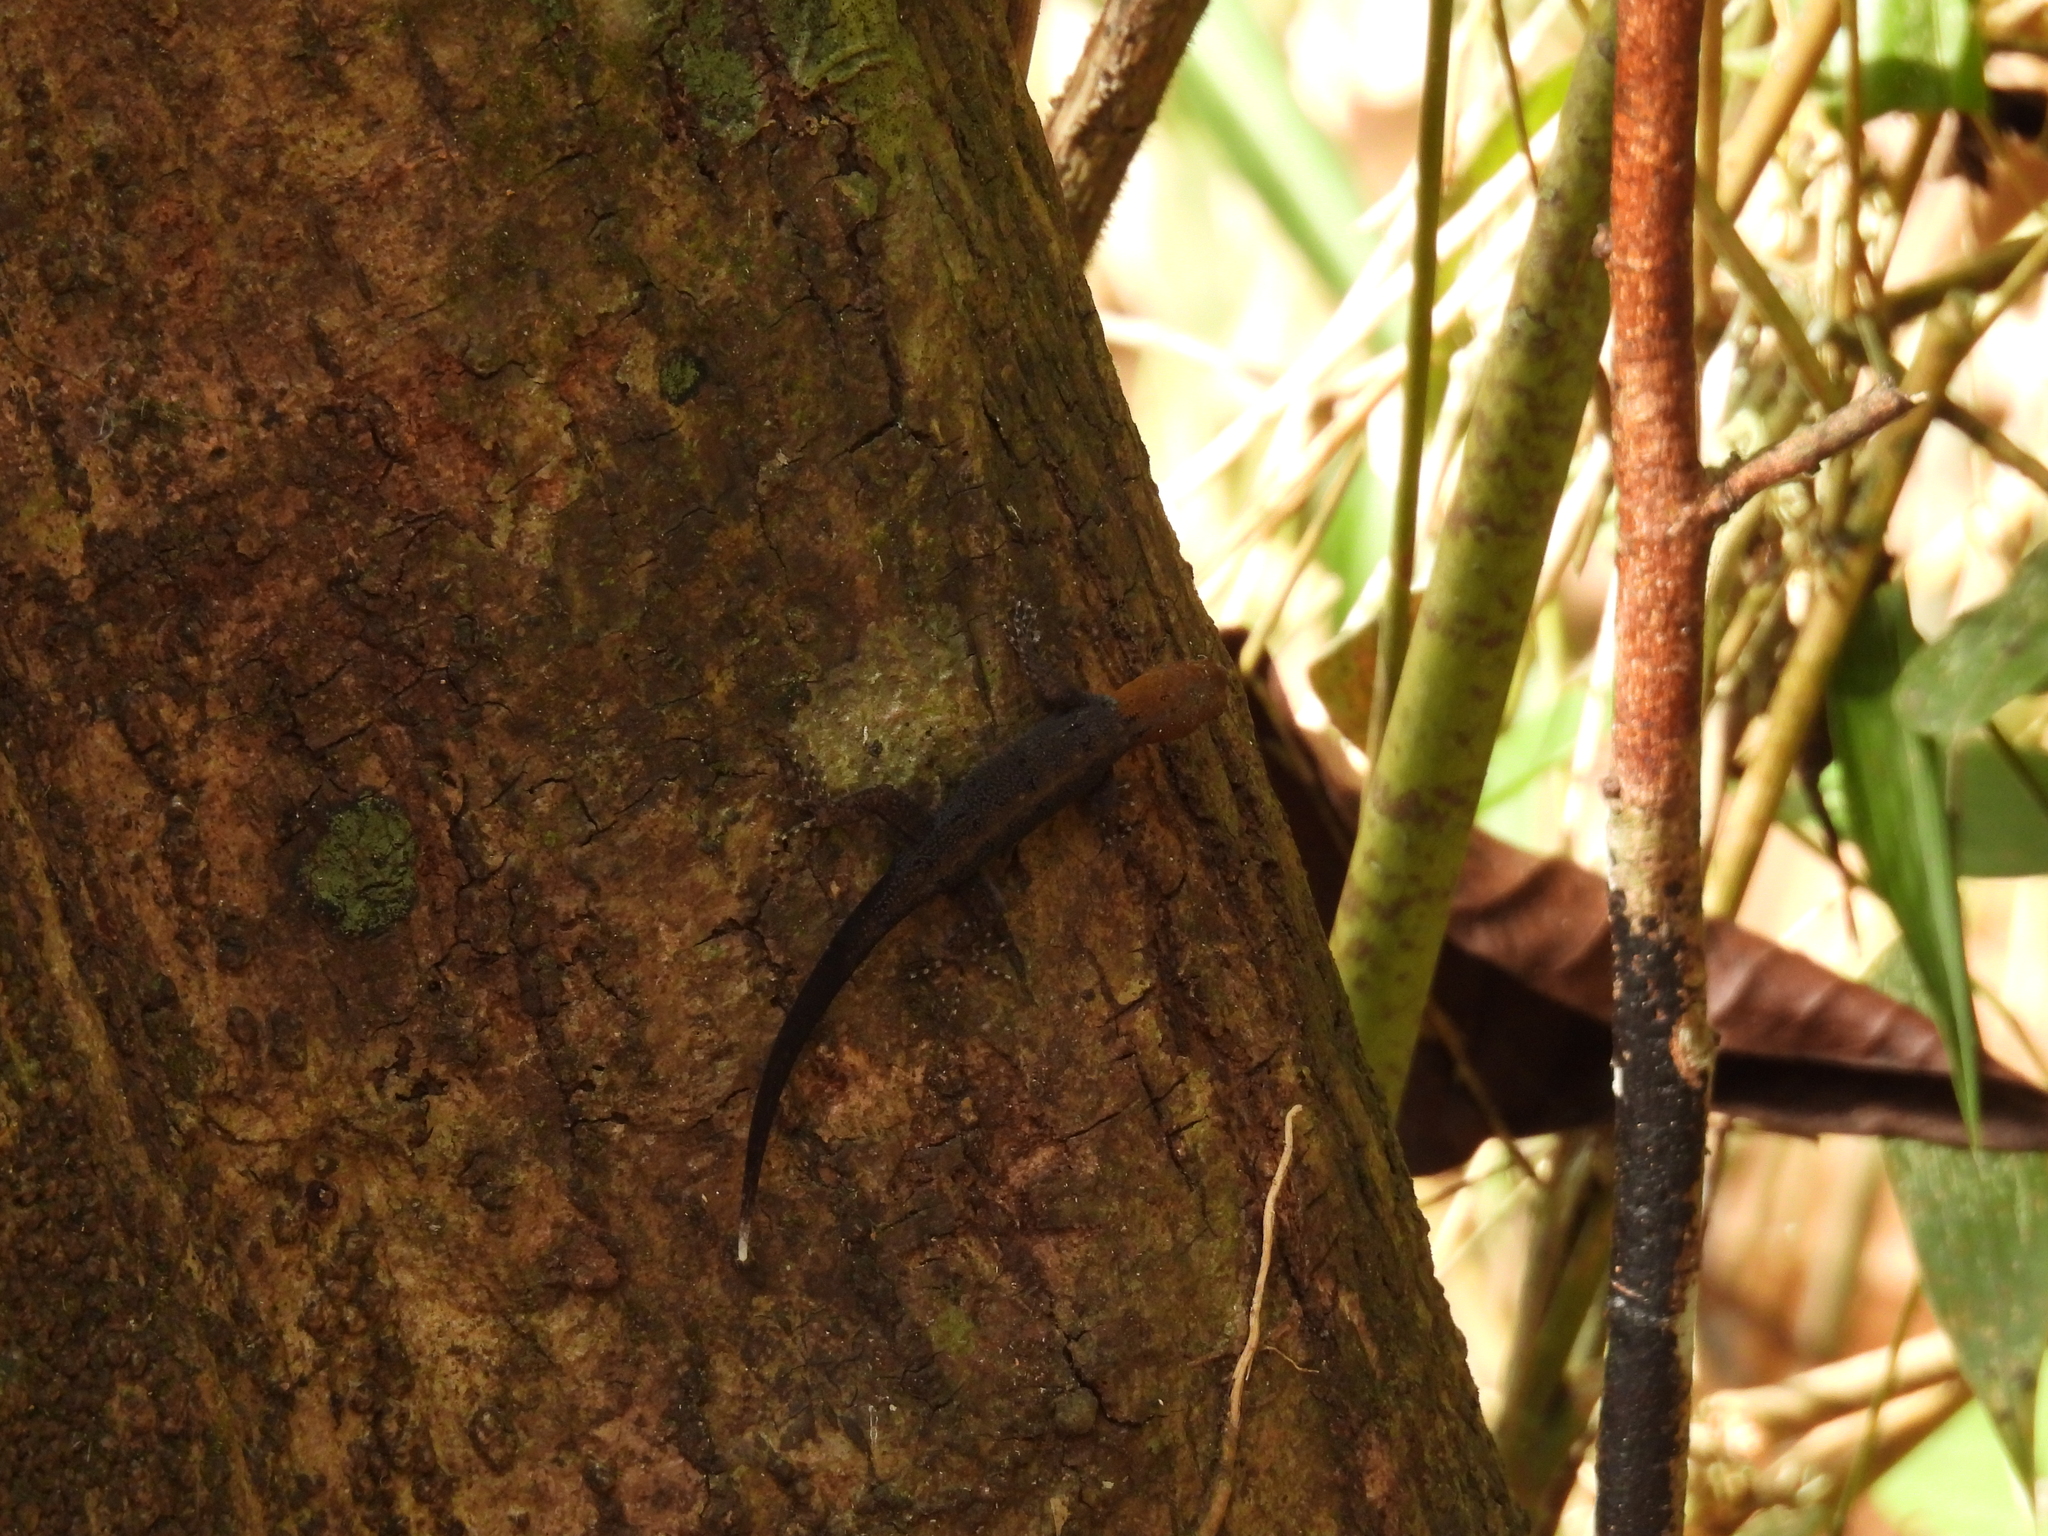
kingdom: Animalia
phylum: Chordata
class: Squamata
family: Sphaerodactylidae
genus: Gonatodes
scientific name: Gonatodes albogularis
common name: Yellow-headed gecko
